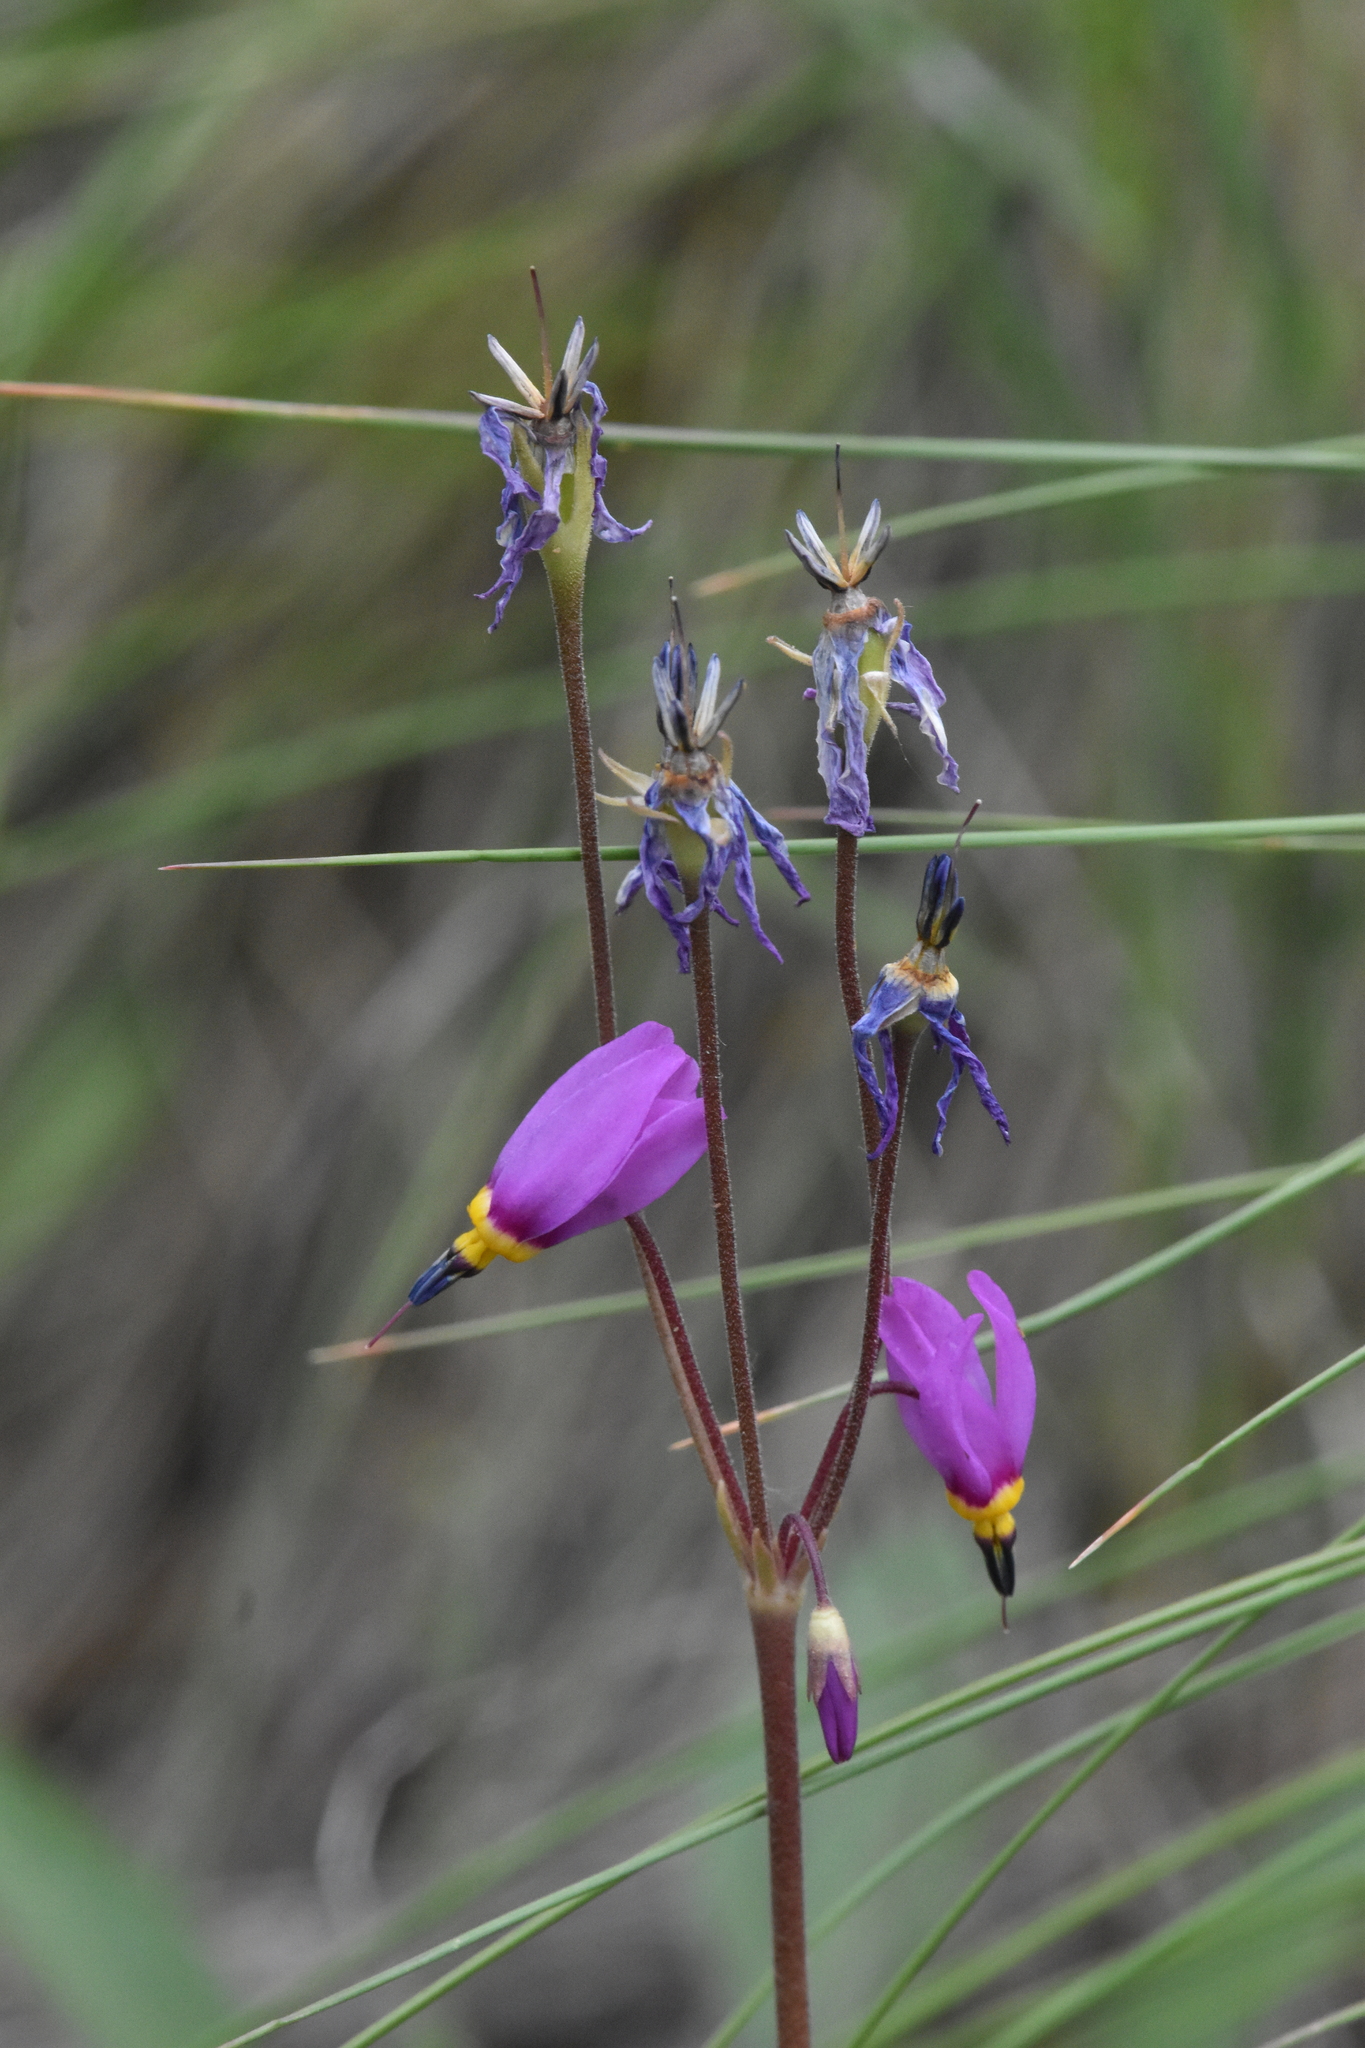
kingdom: Plantae
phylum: Tracheophyta
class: Magnoliopsida
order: Ericales
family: Primulaceae
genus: Dodecatheon
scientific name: Dodecatheon pulchellum
